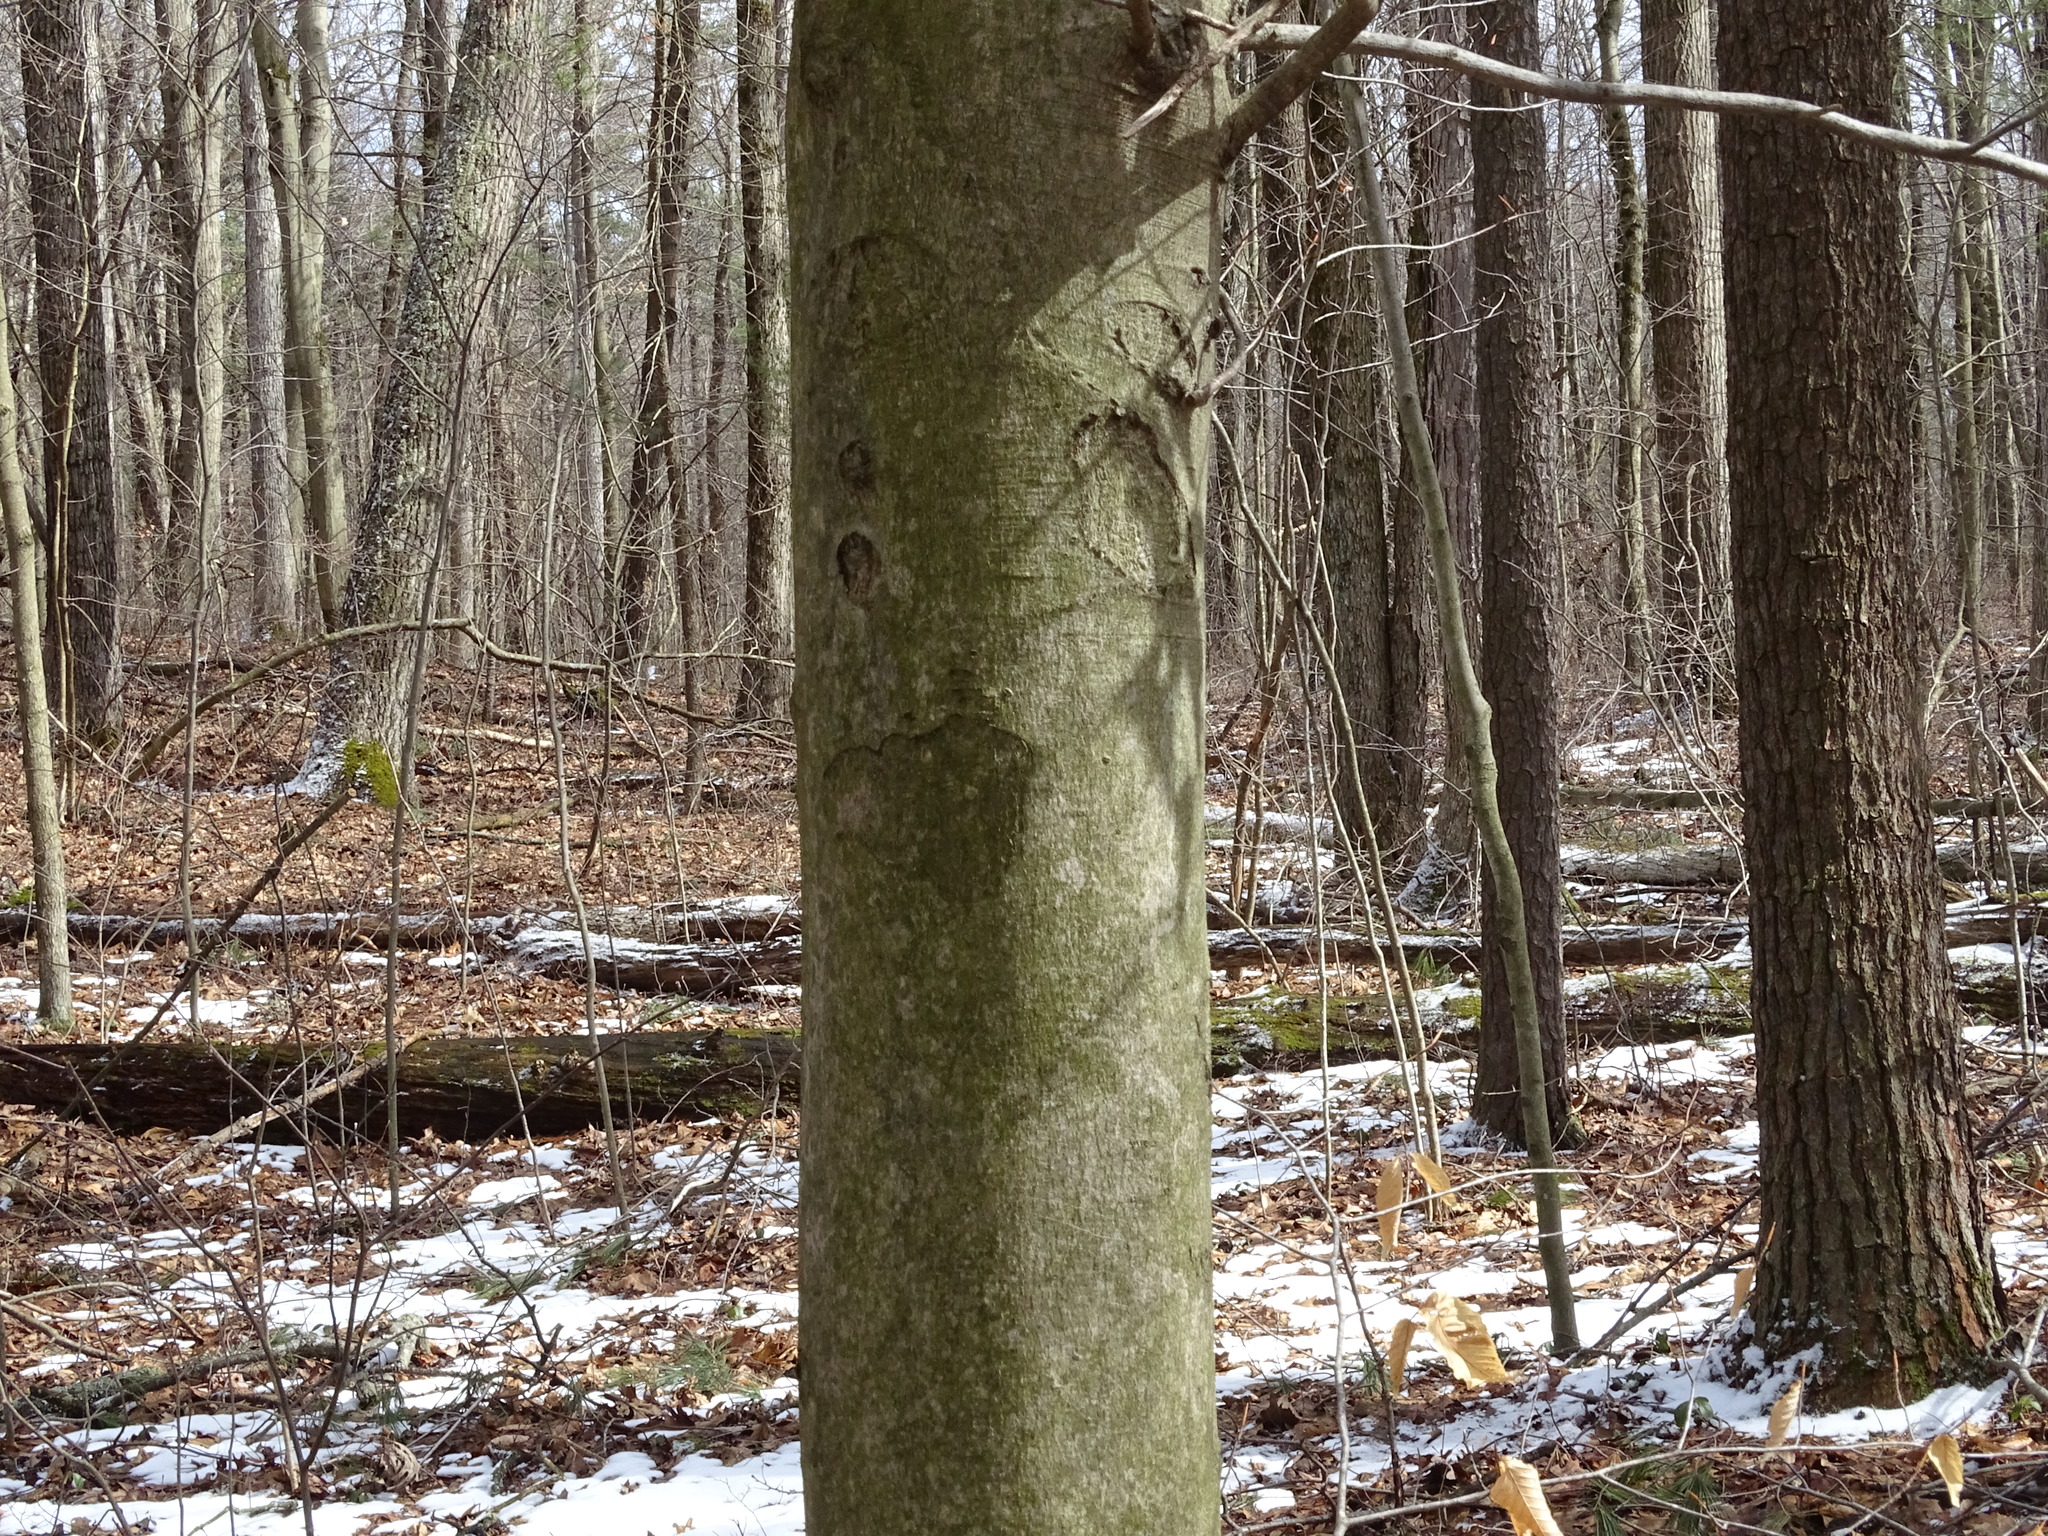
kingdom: Plantae
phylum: Tracheophyta
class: Magnoliopsida
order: Fagales
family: Fagaceae
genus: Fagus
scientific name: Fagus grandifolia
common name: American beech
